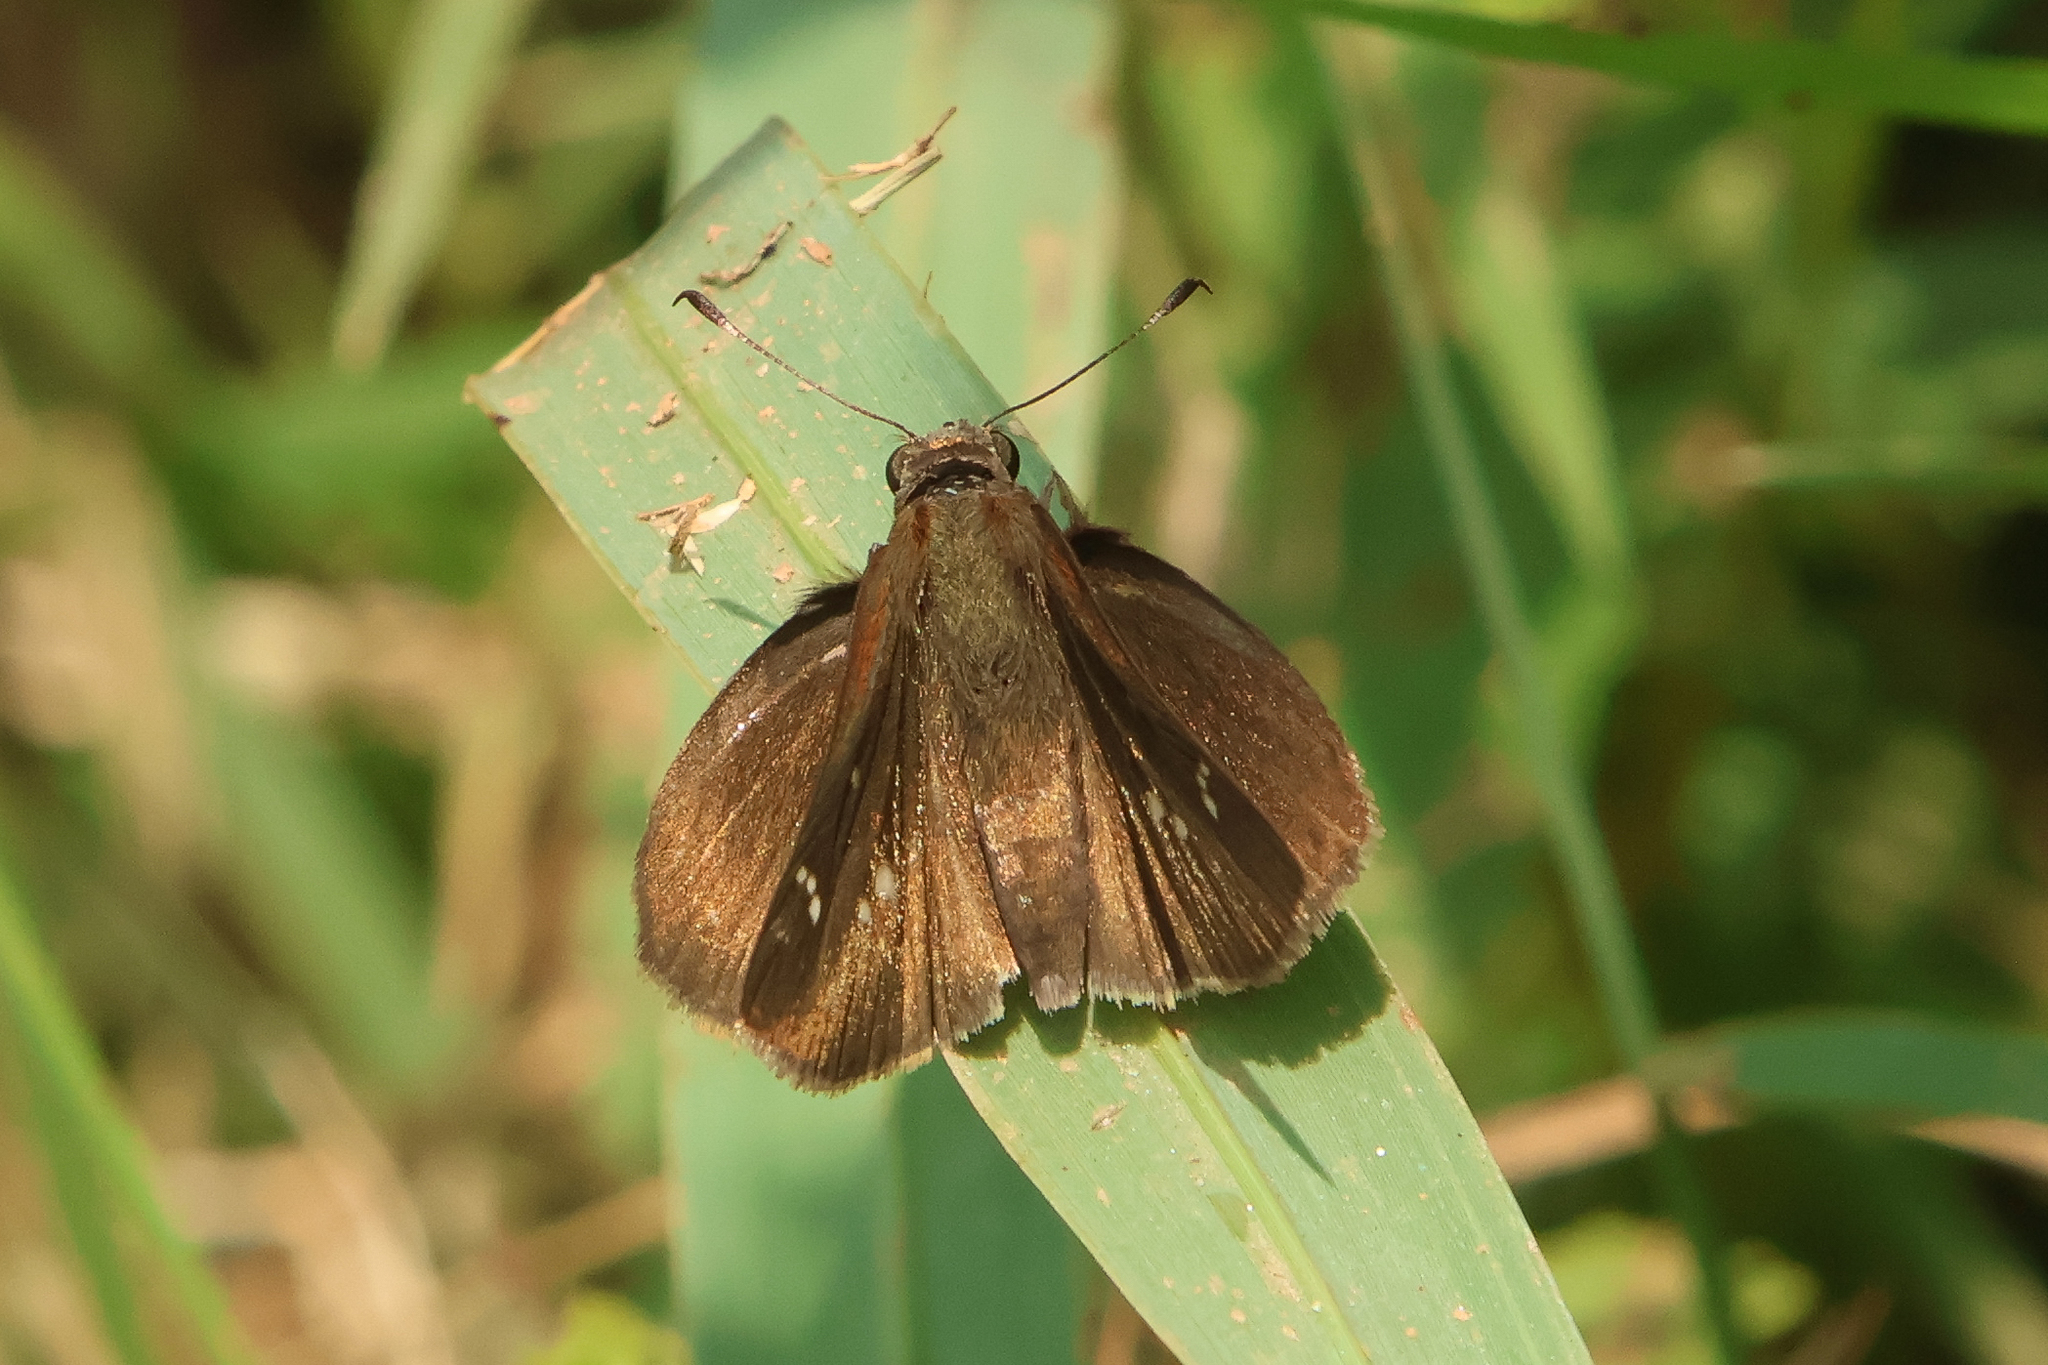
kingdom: Animalia
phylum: Arthropoda
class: Insecta
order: Lepidoptera
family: Hesperiidae
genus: Lerema
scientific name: Lerema accius
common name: Clouded skipper
